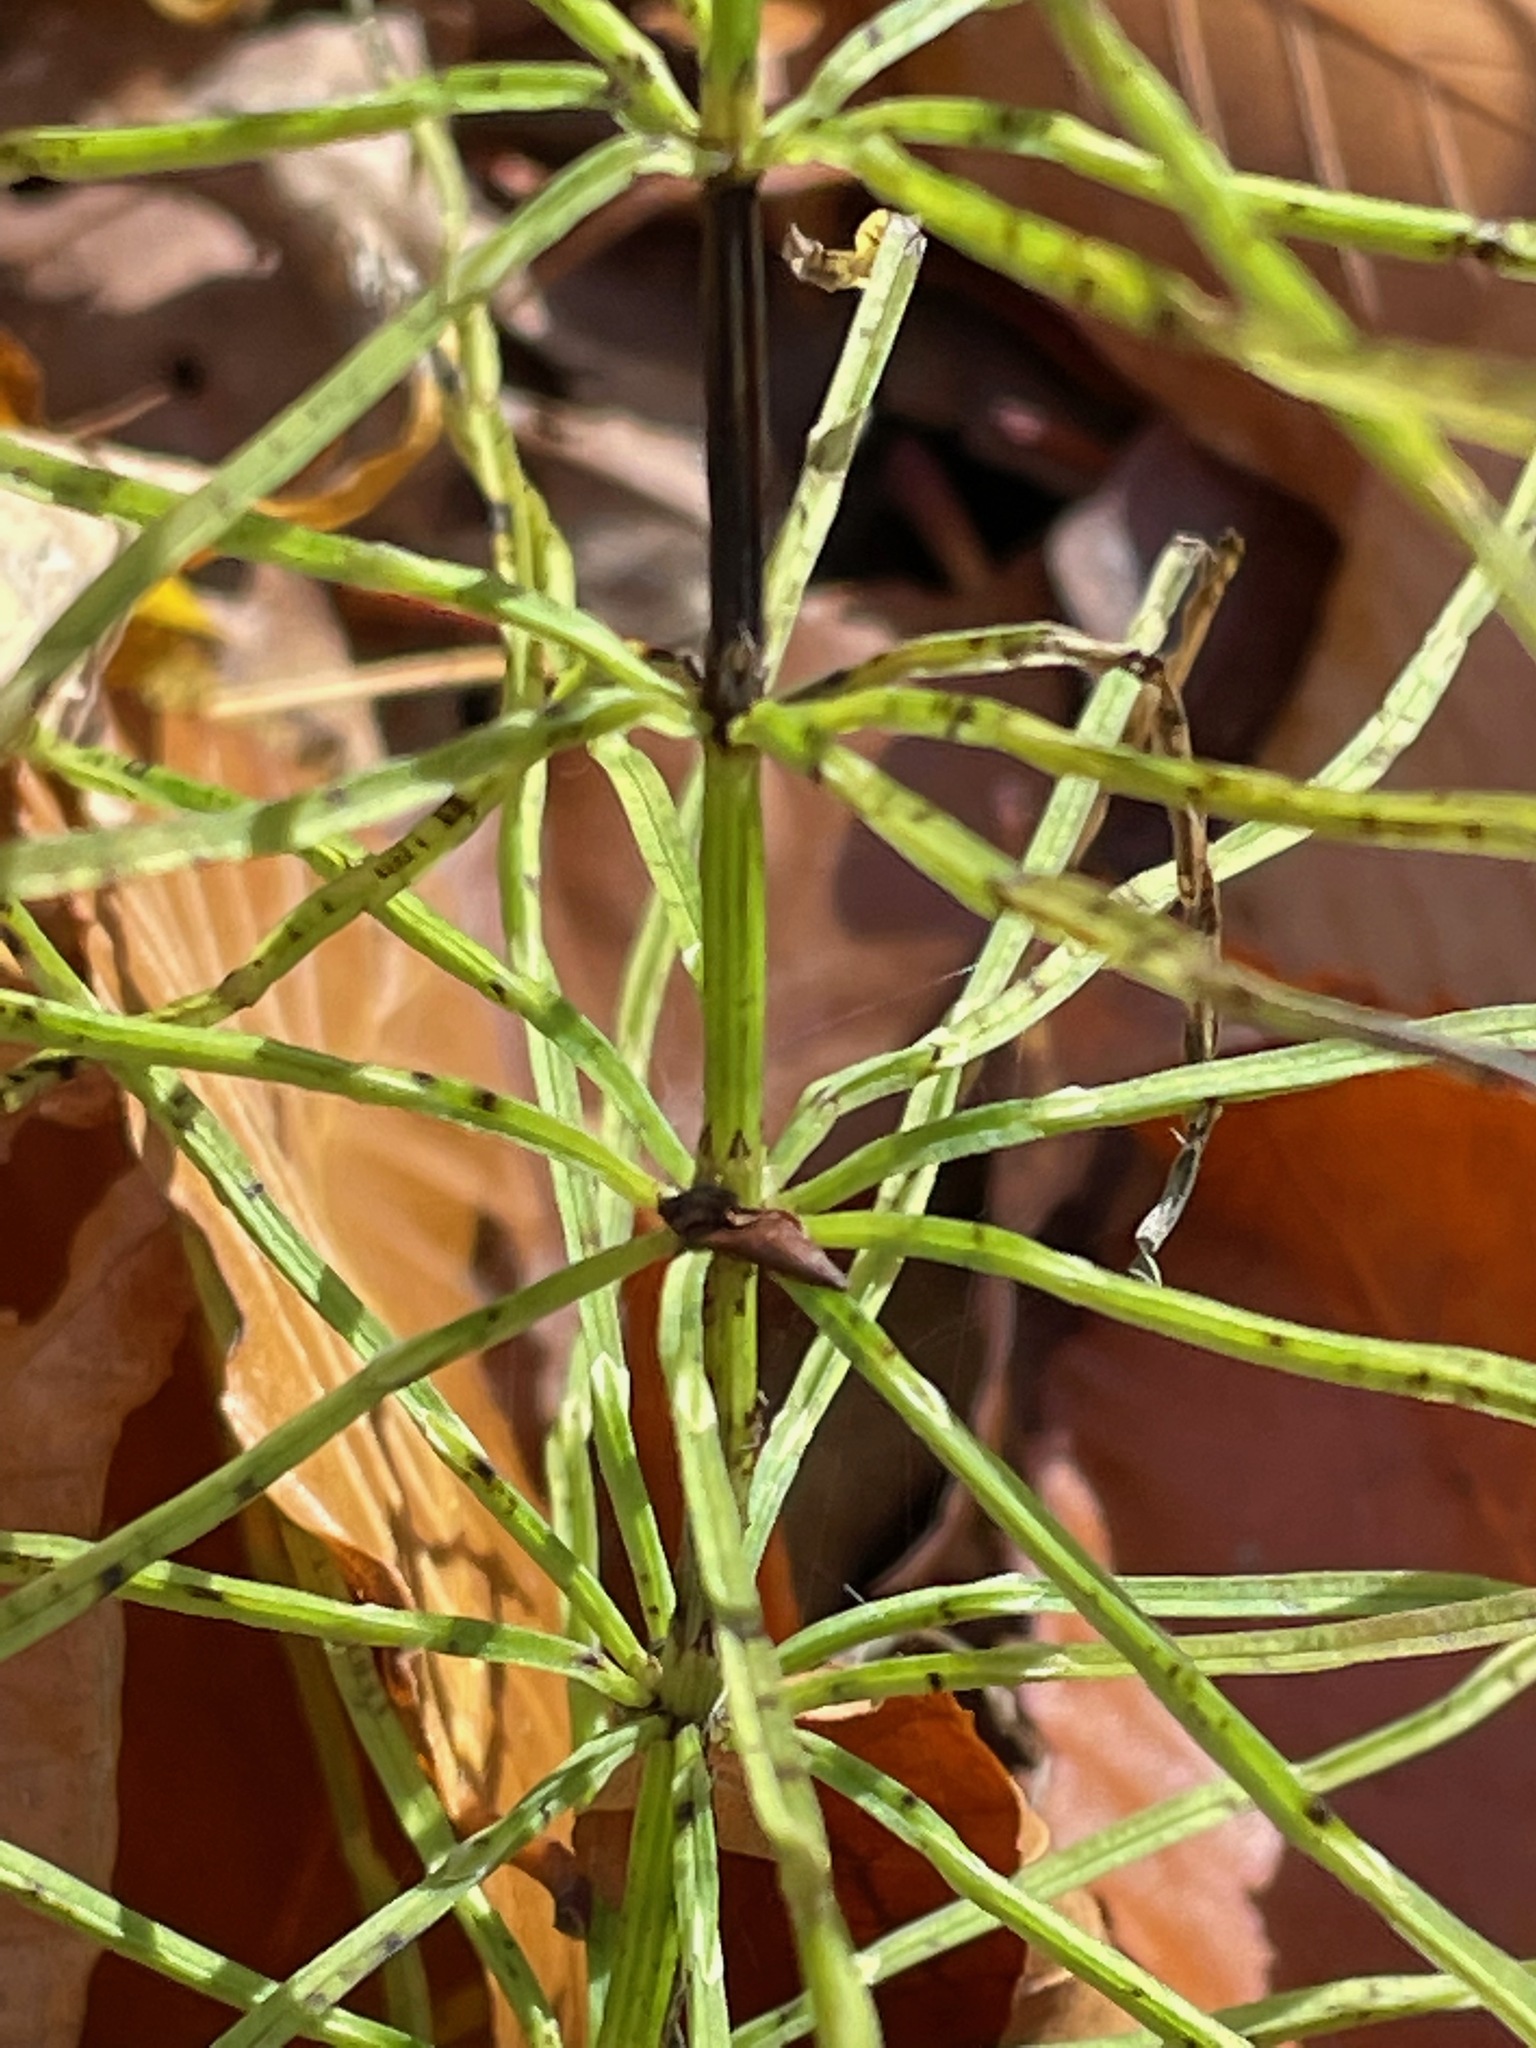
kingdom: Plantae
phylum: Tracheophyta
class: Polypodiopsida
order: Equisetales
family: Equisetaceae
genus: Equisetum
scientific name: Equisetum arvense
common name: Field horsetail
